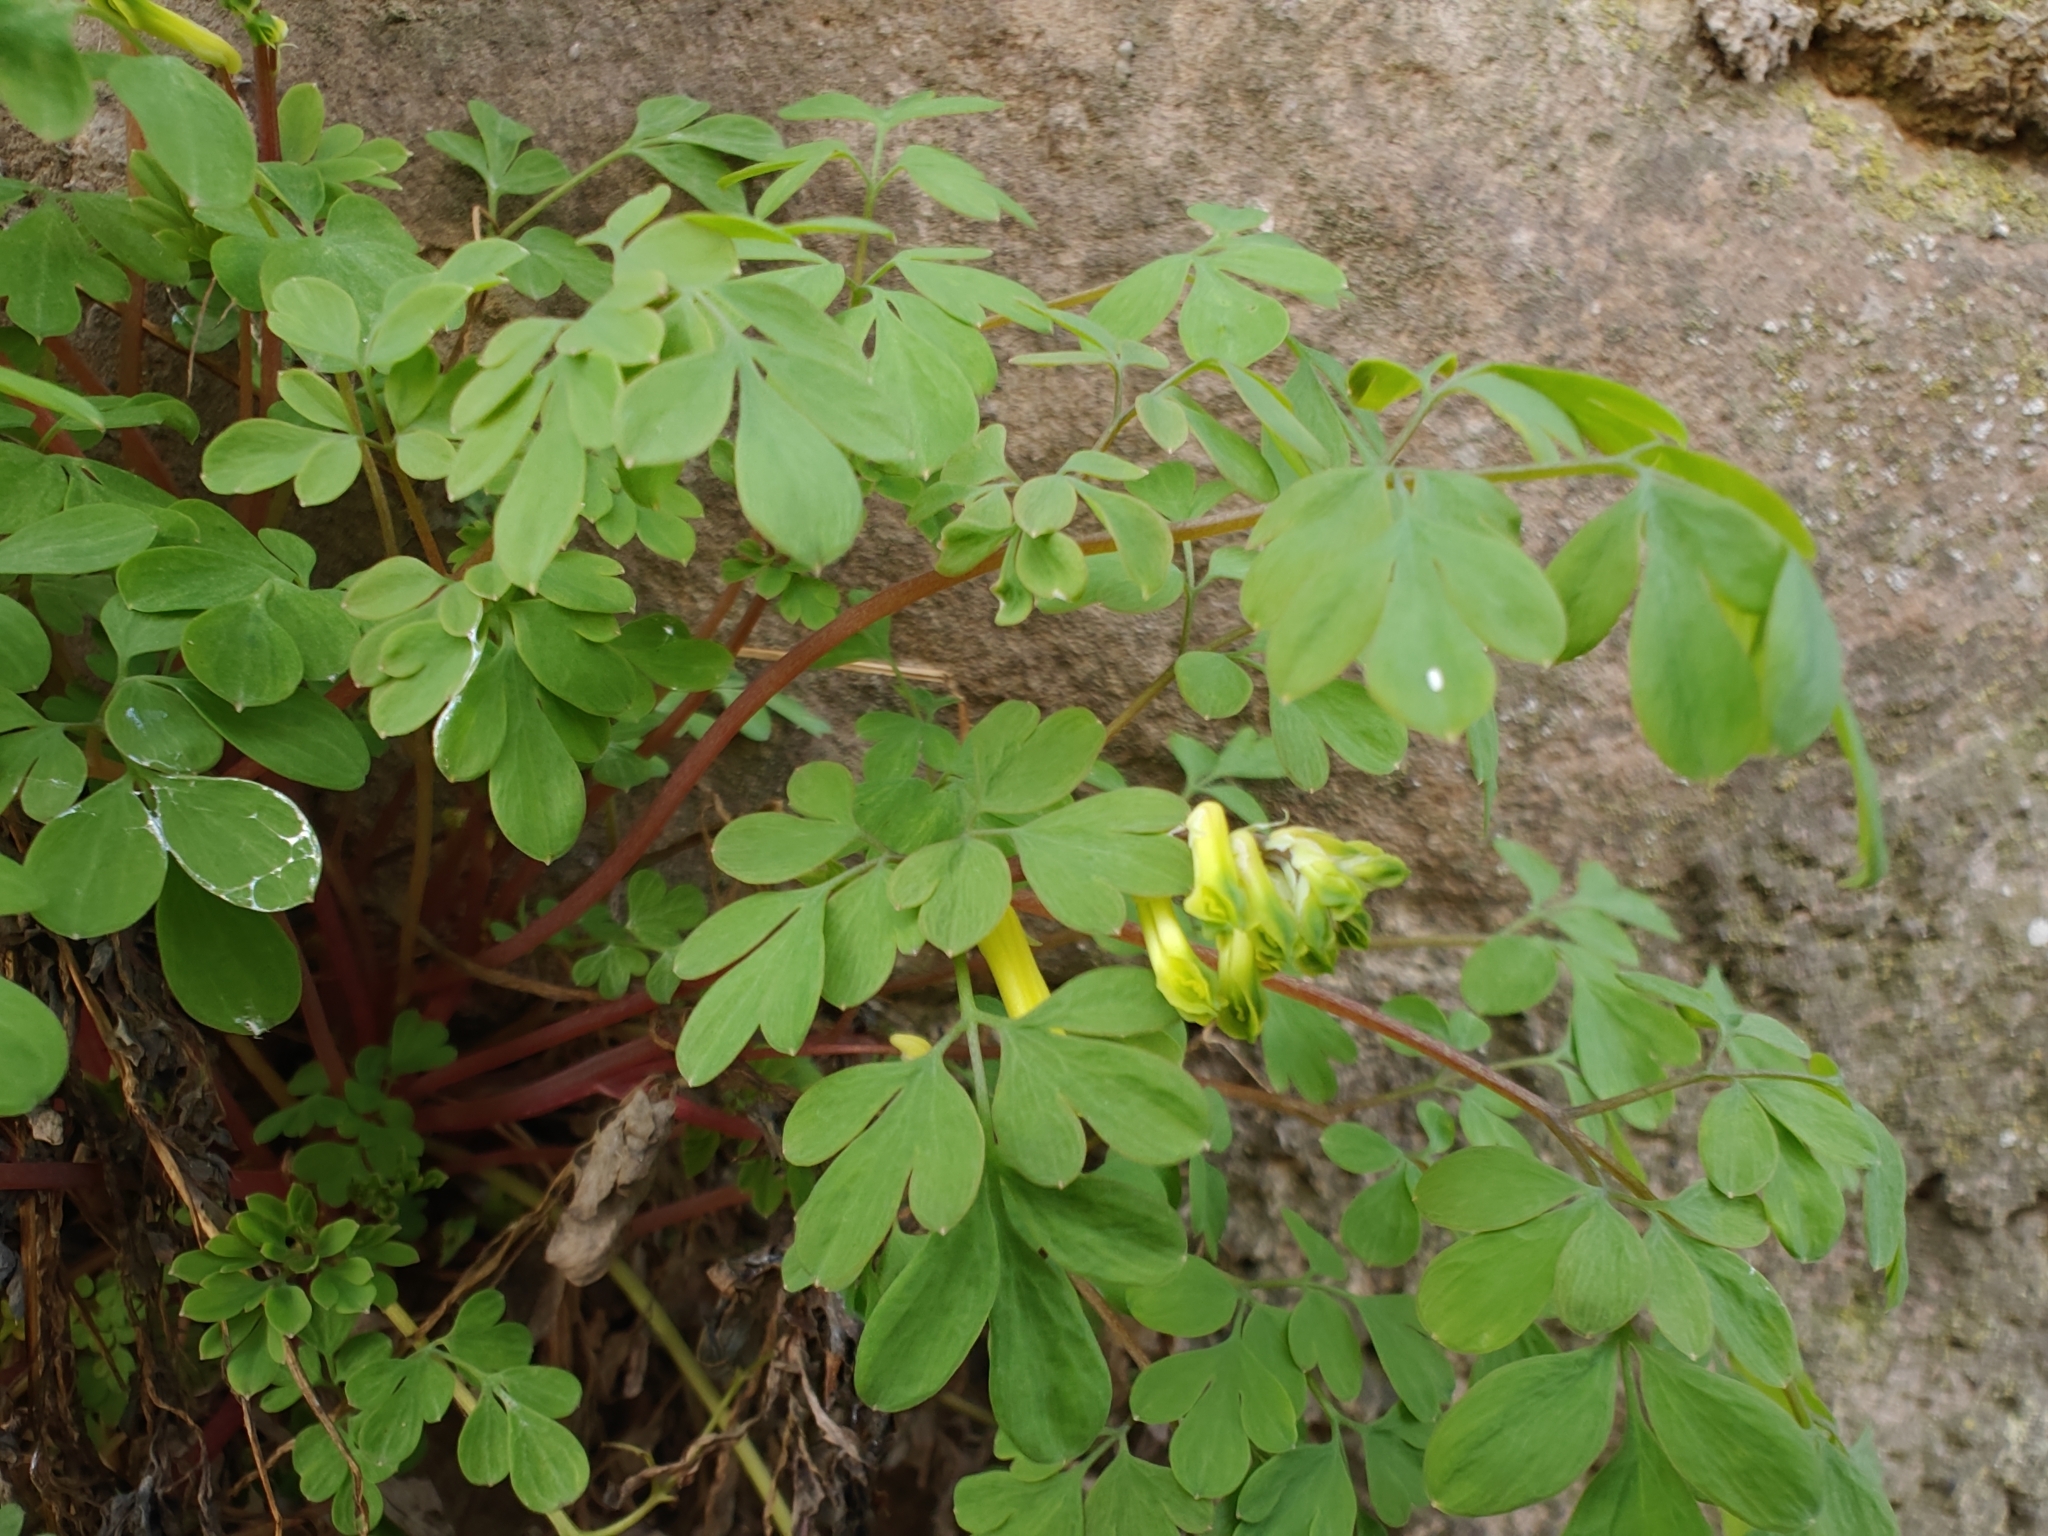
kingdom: Plantae
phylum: Tracheophyta
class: Magnoliopsida
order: Ranunculales
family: Papaveraceae
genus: Pseudofumaria
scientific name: Pseudofumaria lutea
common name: Yellow corydalis
